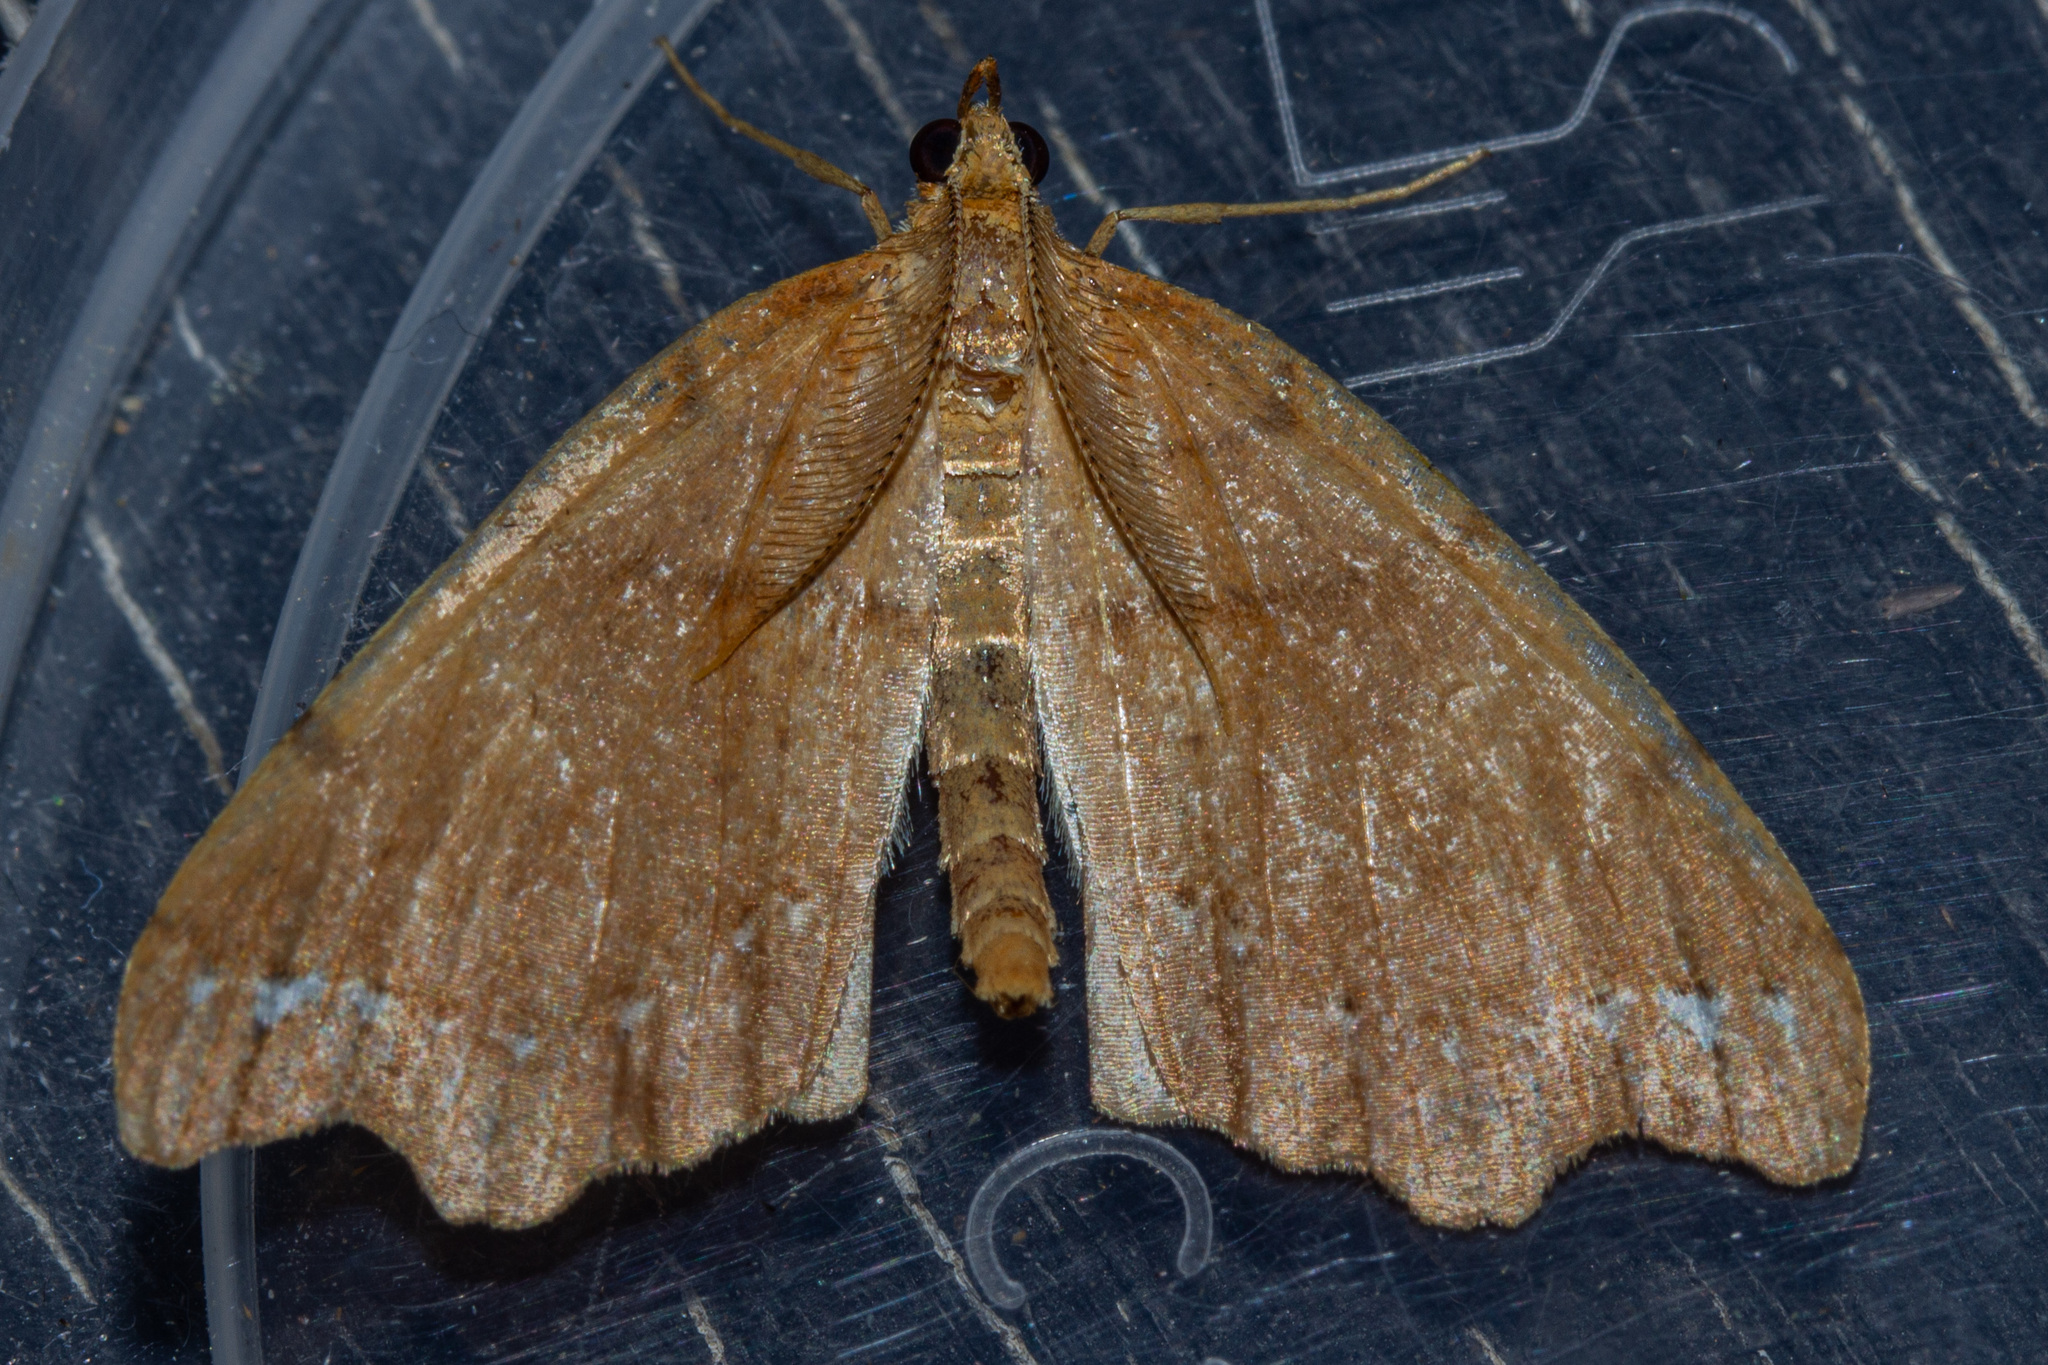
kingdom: Animalia
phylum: Arthropoda
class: Insecta
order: Lepidoptera
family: Geometridae
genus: Chalastra
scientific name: Chalastra pellurgata
